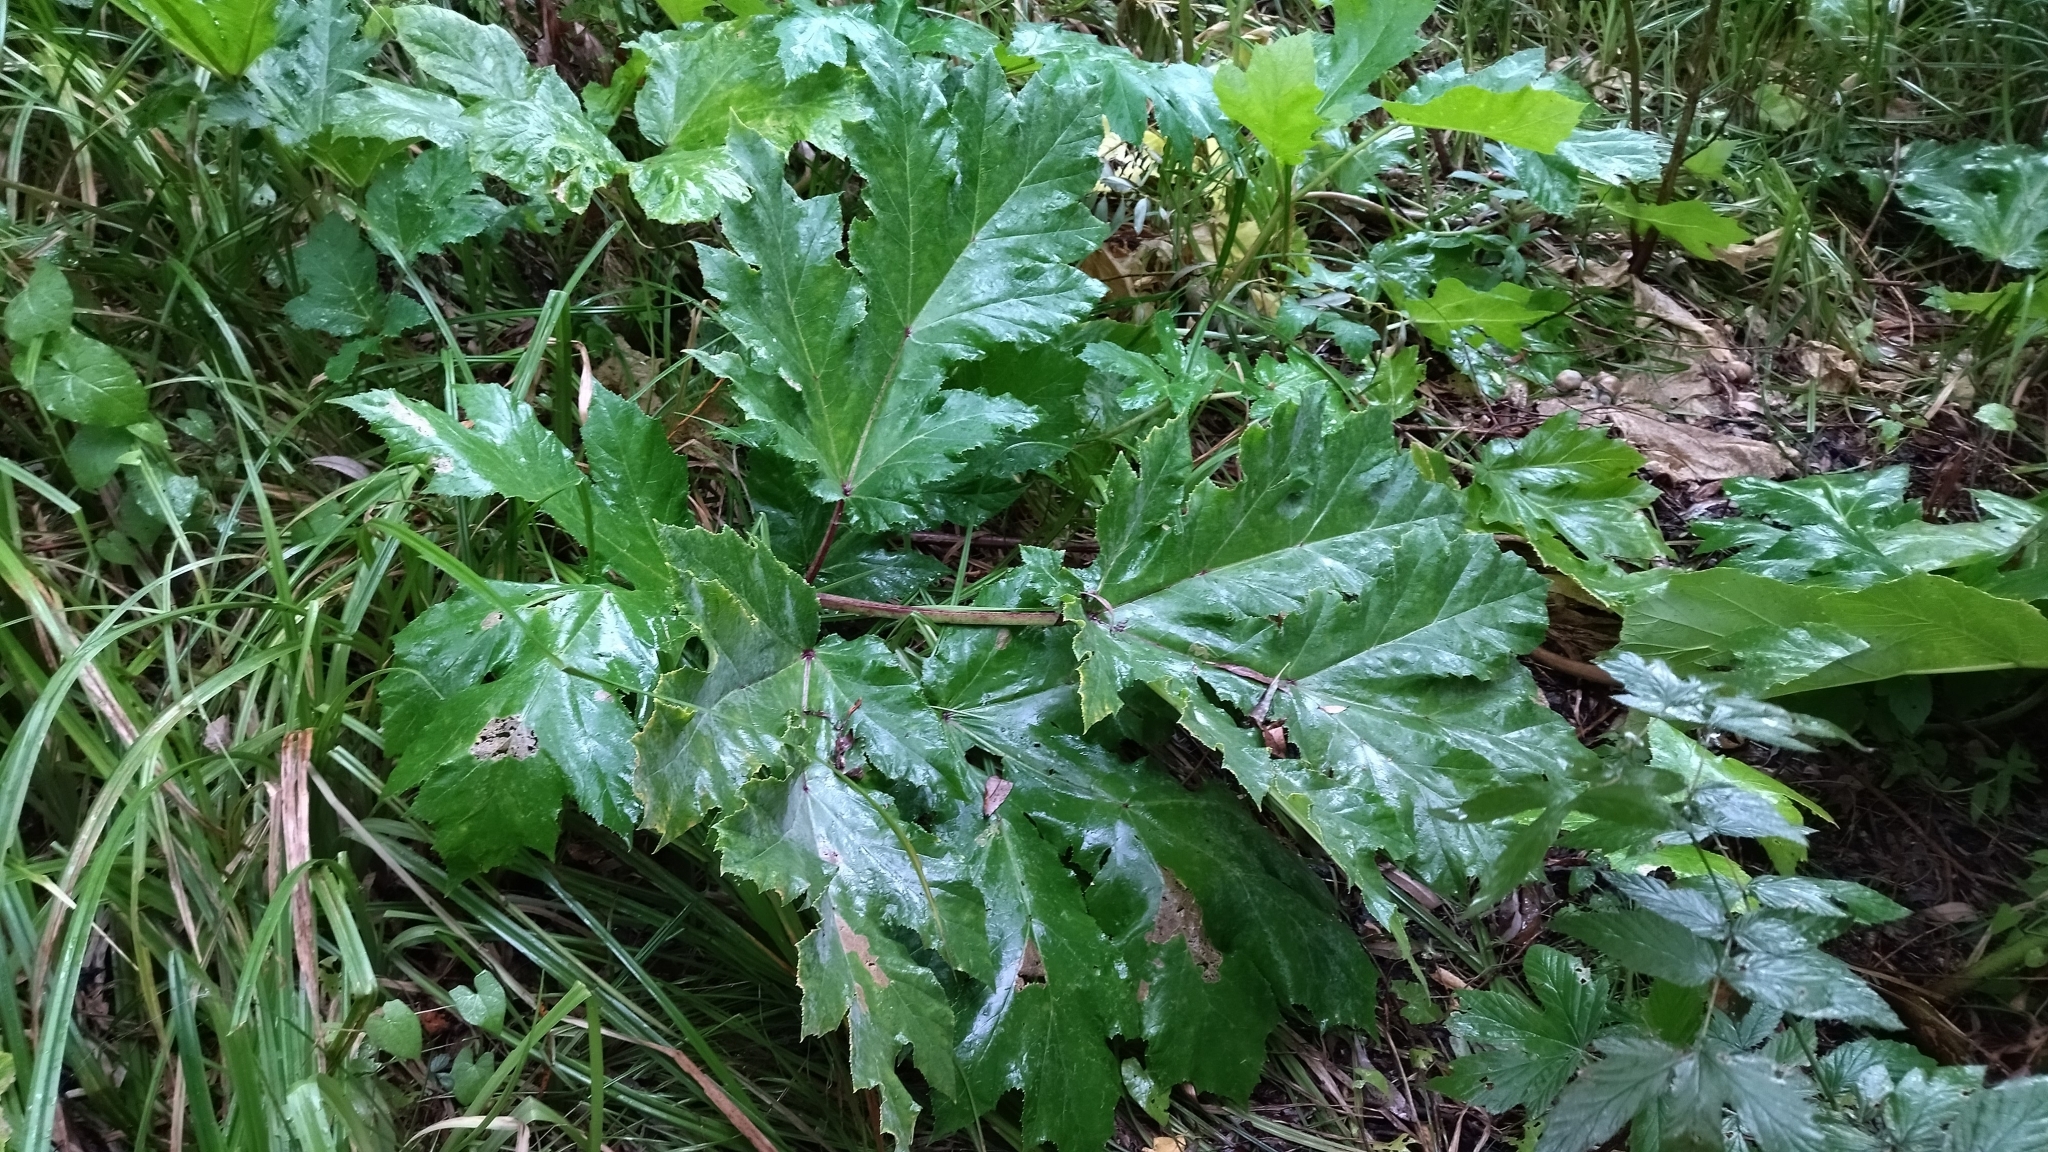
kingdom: Plantae
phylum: Tracheophyta
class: Magnoliopsida
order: Apiales
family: Apiaceae
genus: Heracleum
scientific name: Heracleum sosnowskyi
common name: Sosnowsky's hogweed
